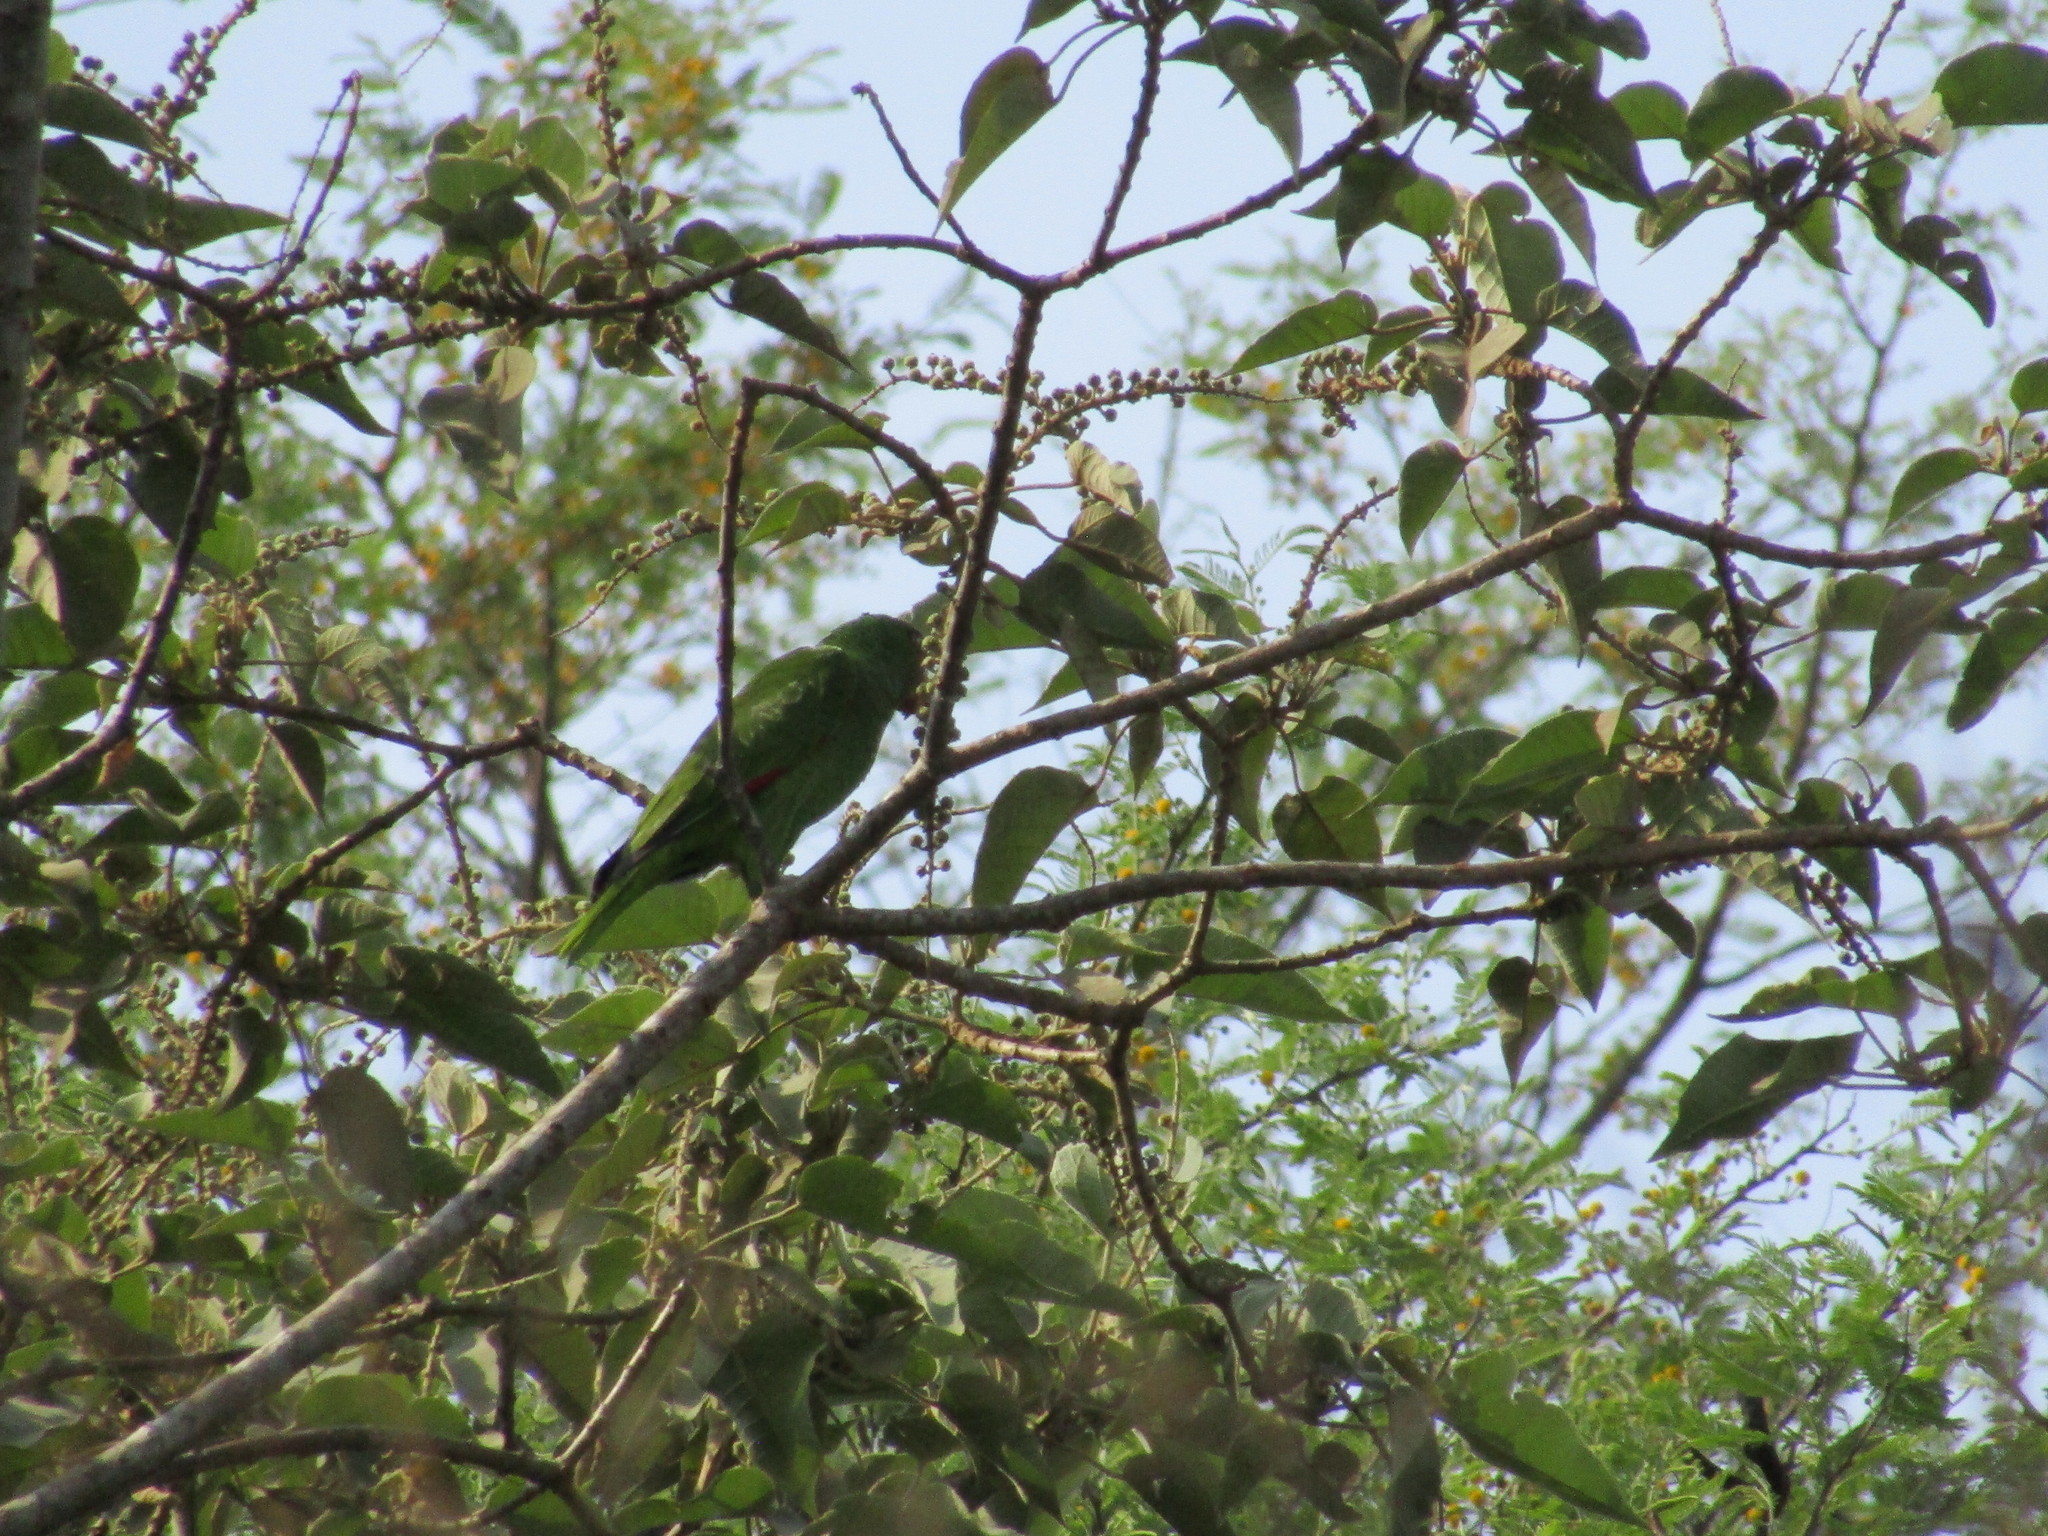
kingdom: Animalia
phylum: Chordata
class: Aves
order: Psittaciformes
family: Psittacidae
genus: Amazona
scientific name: Amazona albifrons
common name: White-fronted amazon
